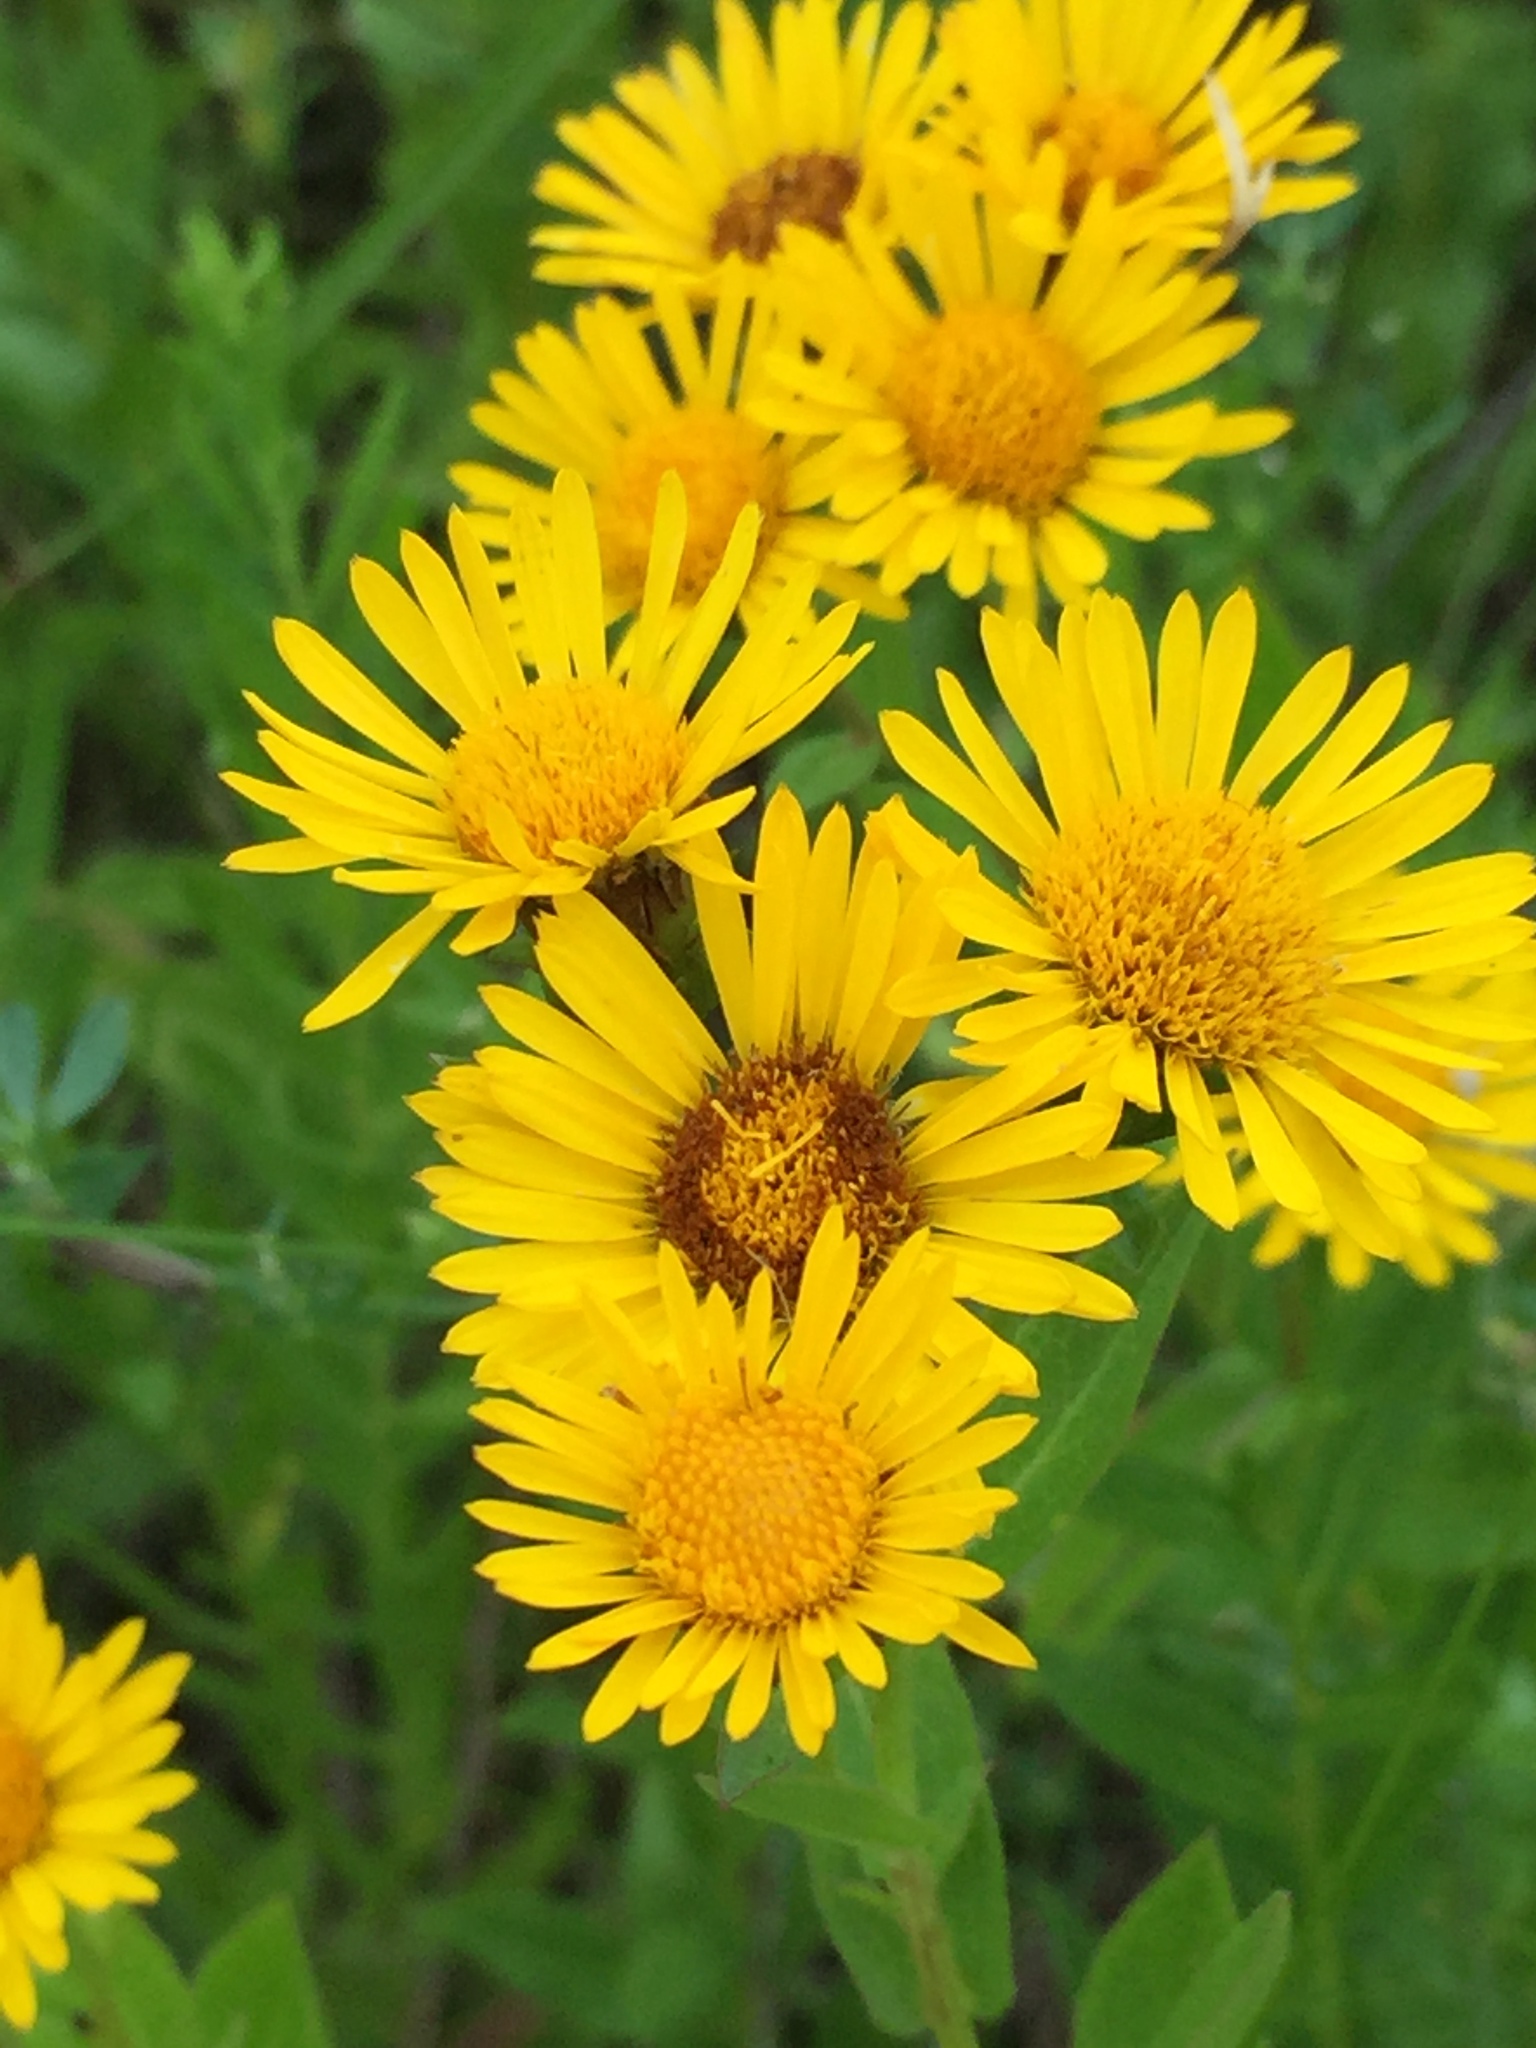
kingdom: Plantae
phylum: Tracheophyta
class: Magnoliopsida
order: Asterales
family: Asteraceae
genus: Pentanema
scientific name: Pentanema salicinum
